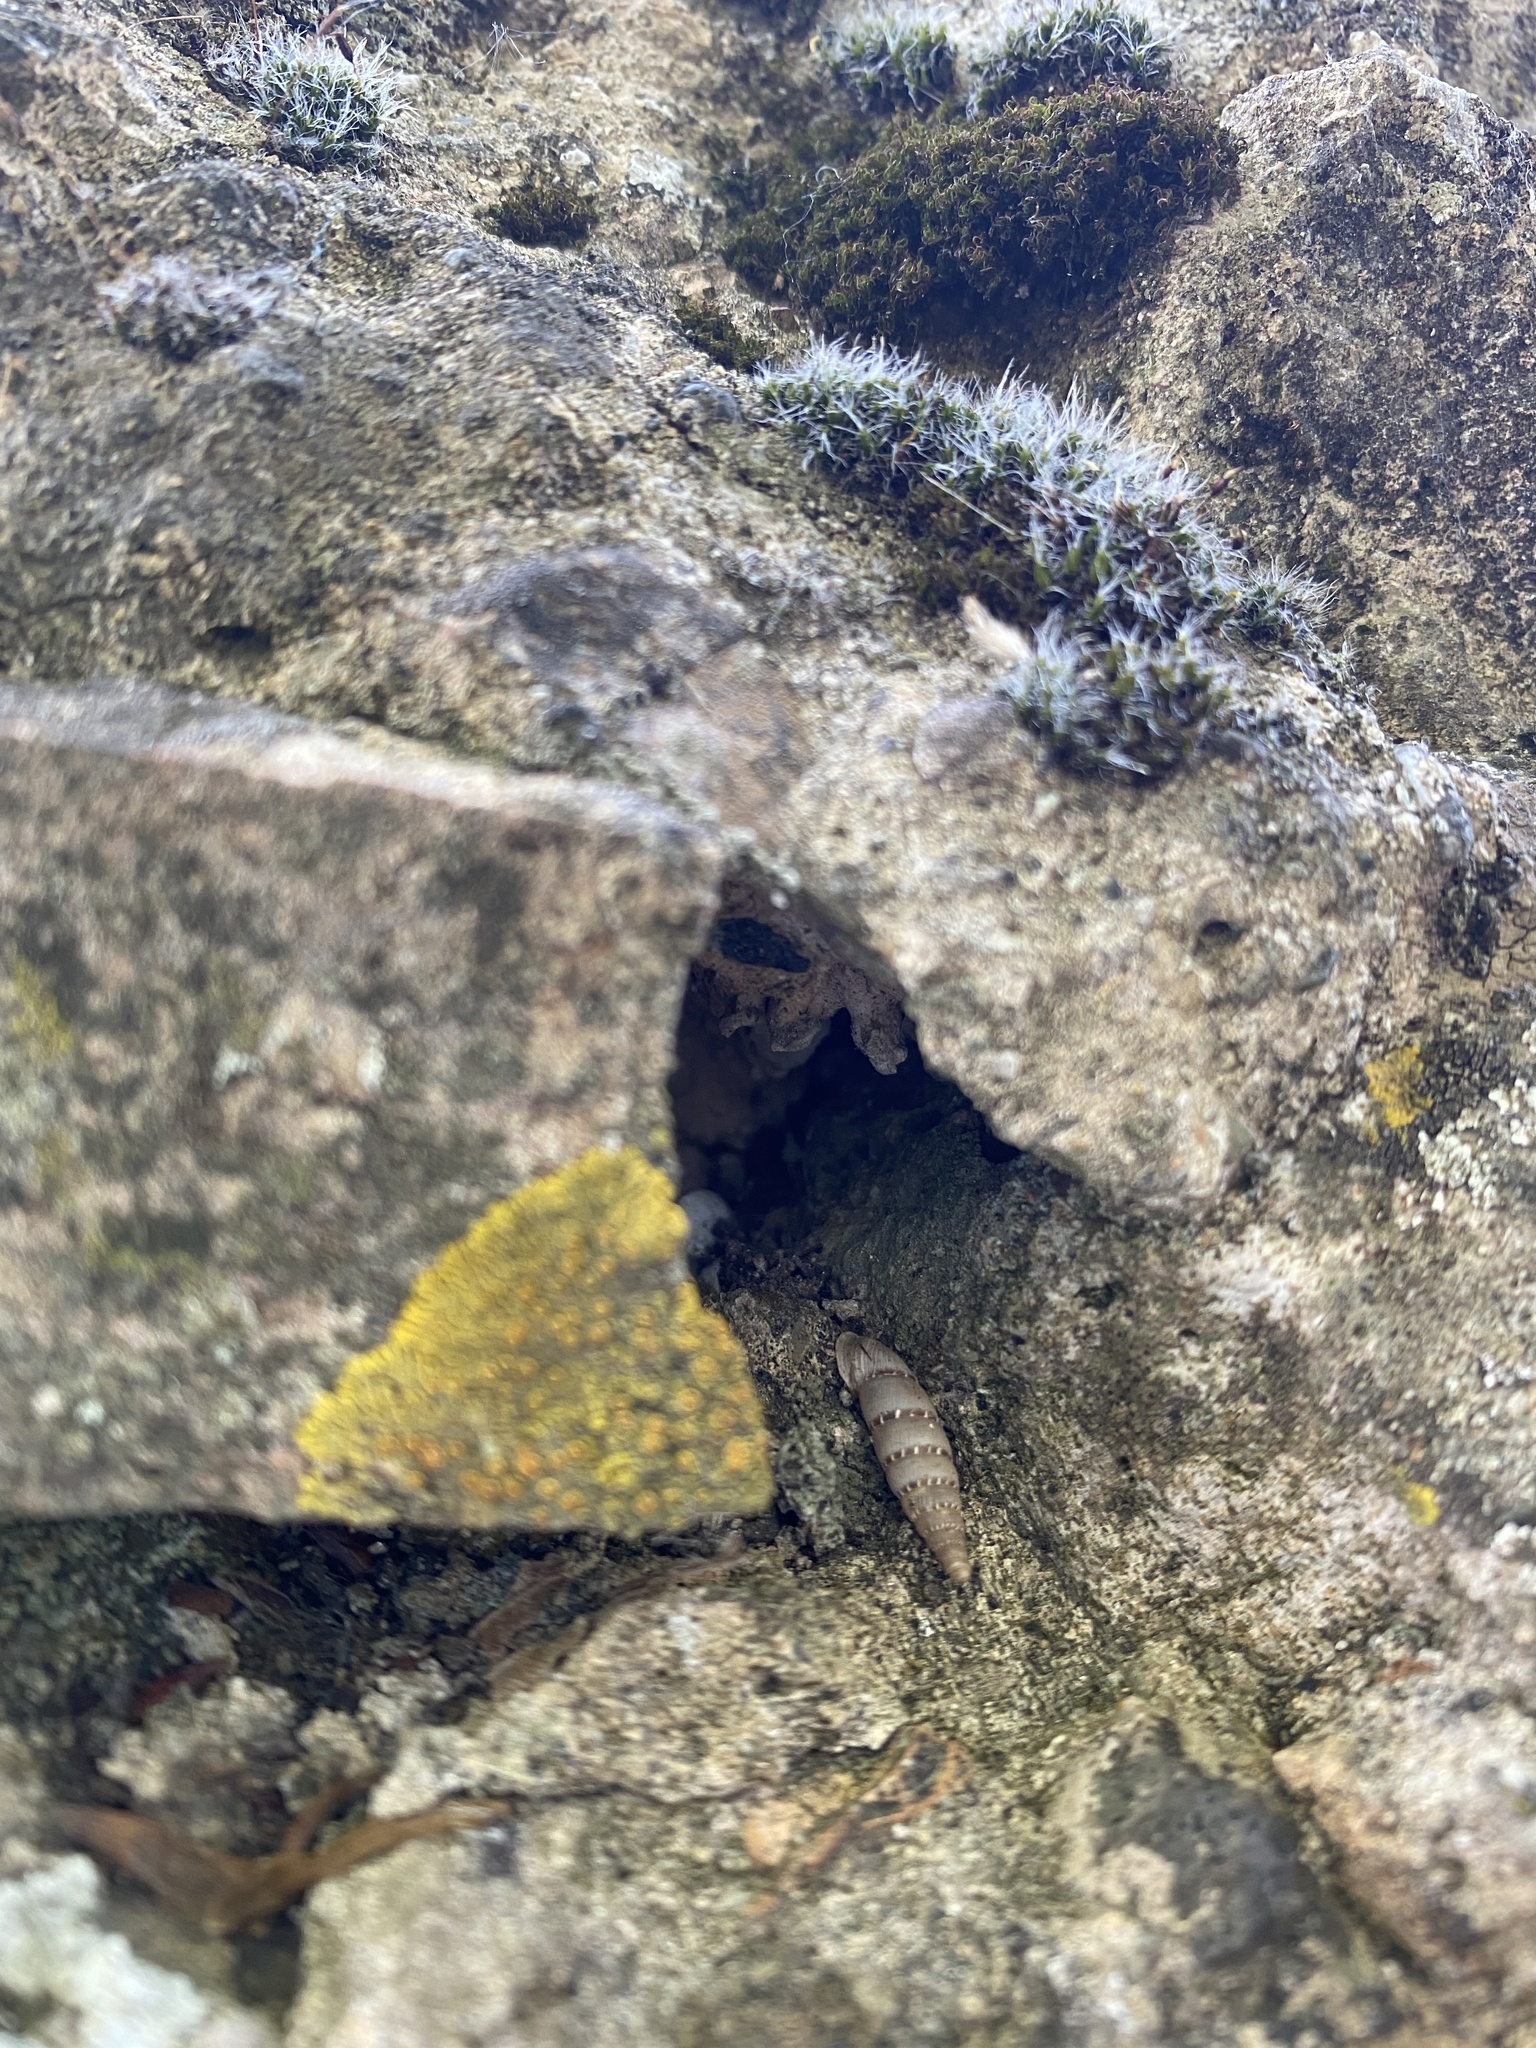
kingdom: Animalia
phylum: Mollusca
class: Gastropoda
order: Stylommatophora
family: Clausiliidae
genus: Papillifera
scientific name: Papillifera papillaris
